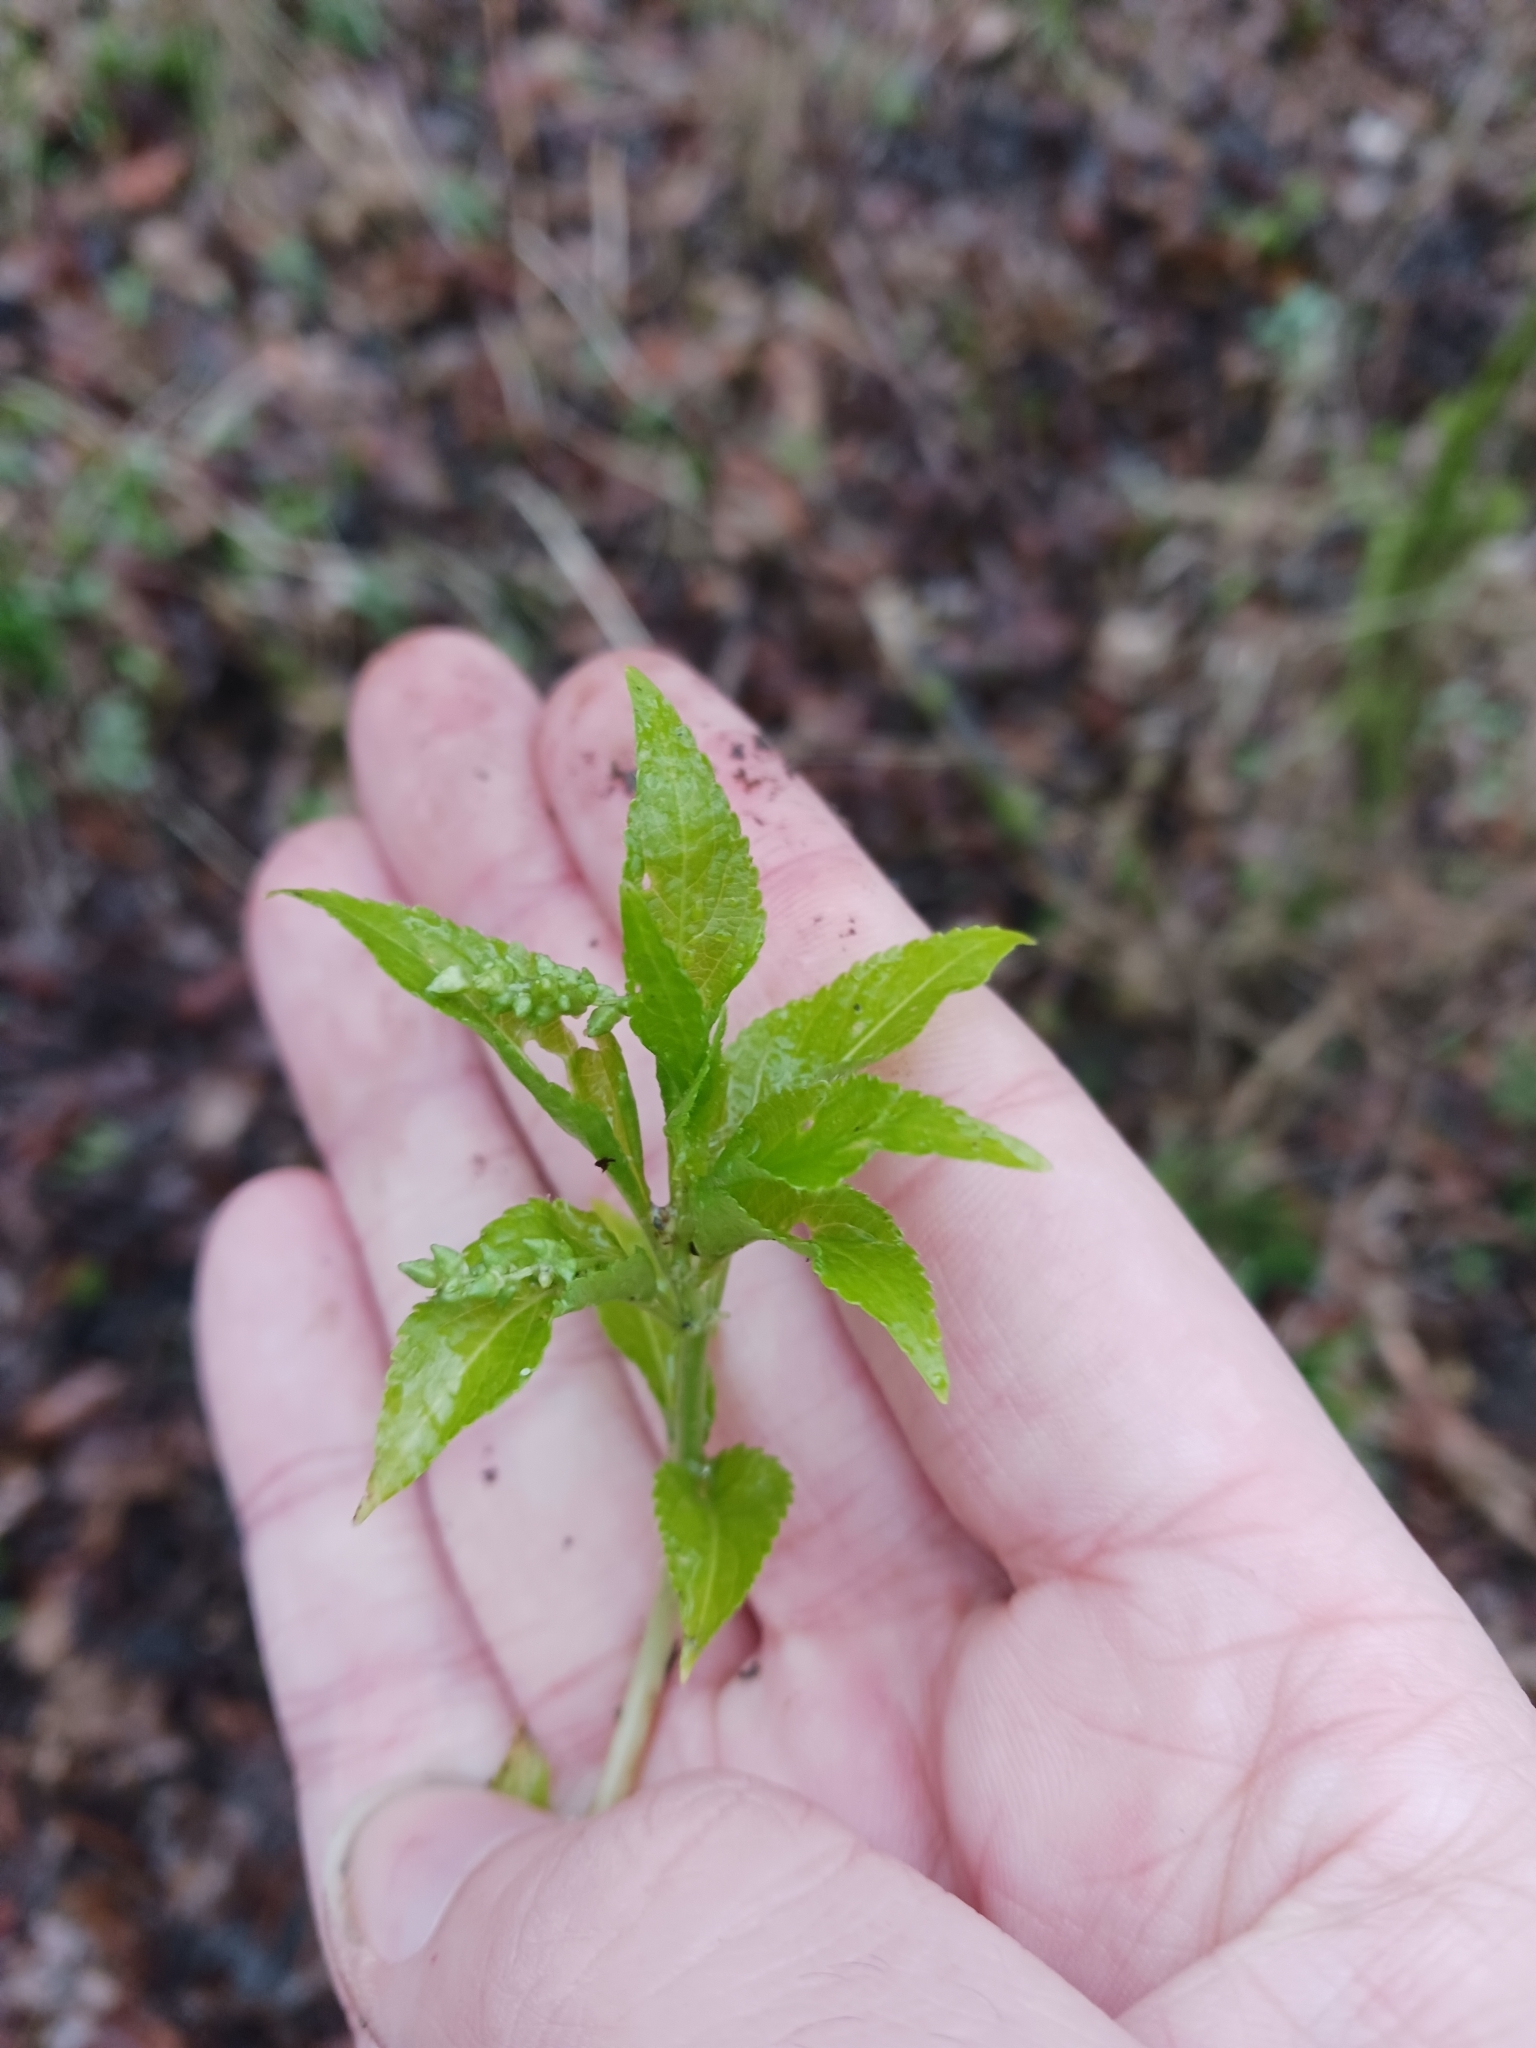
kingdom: Plantae
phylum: Tracheophyta
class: Magnoliopsida
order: Malpighiales
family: Euphorbiaceae
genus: Mercurialis
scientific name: Mercurialis perennis
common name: Dog mercury
